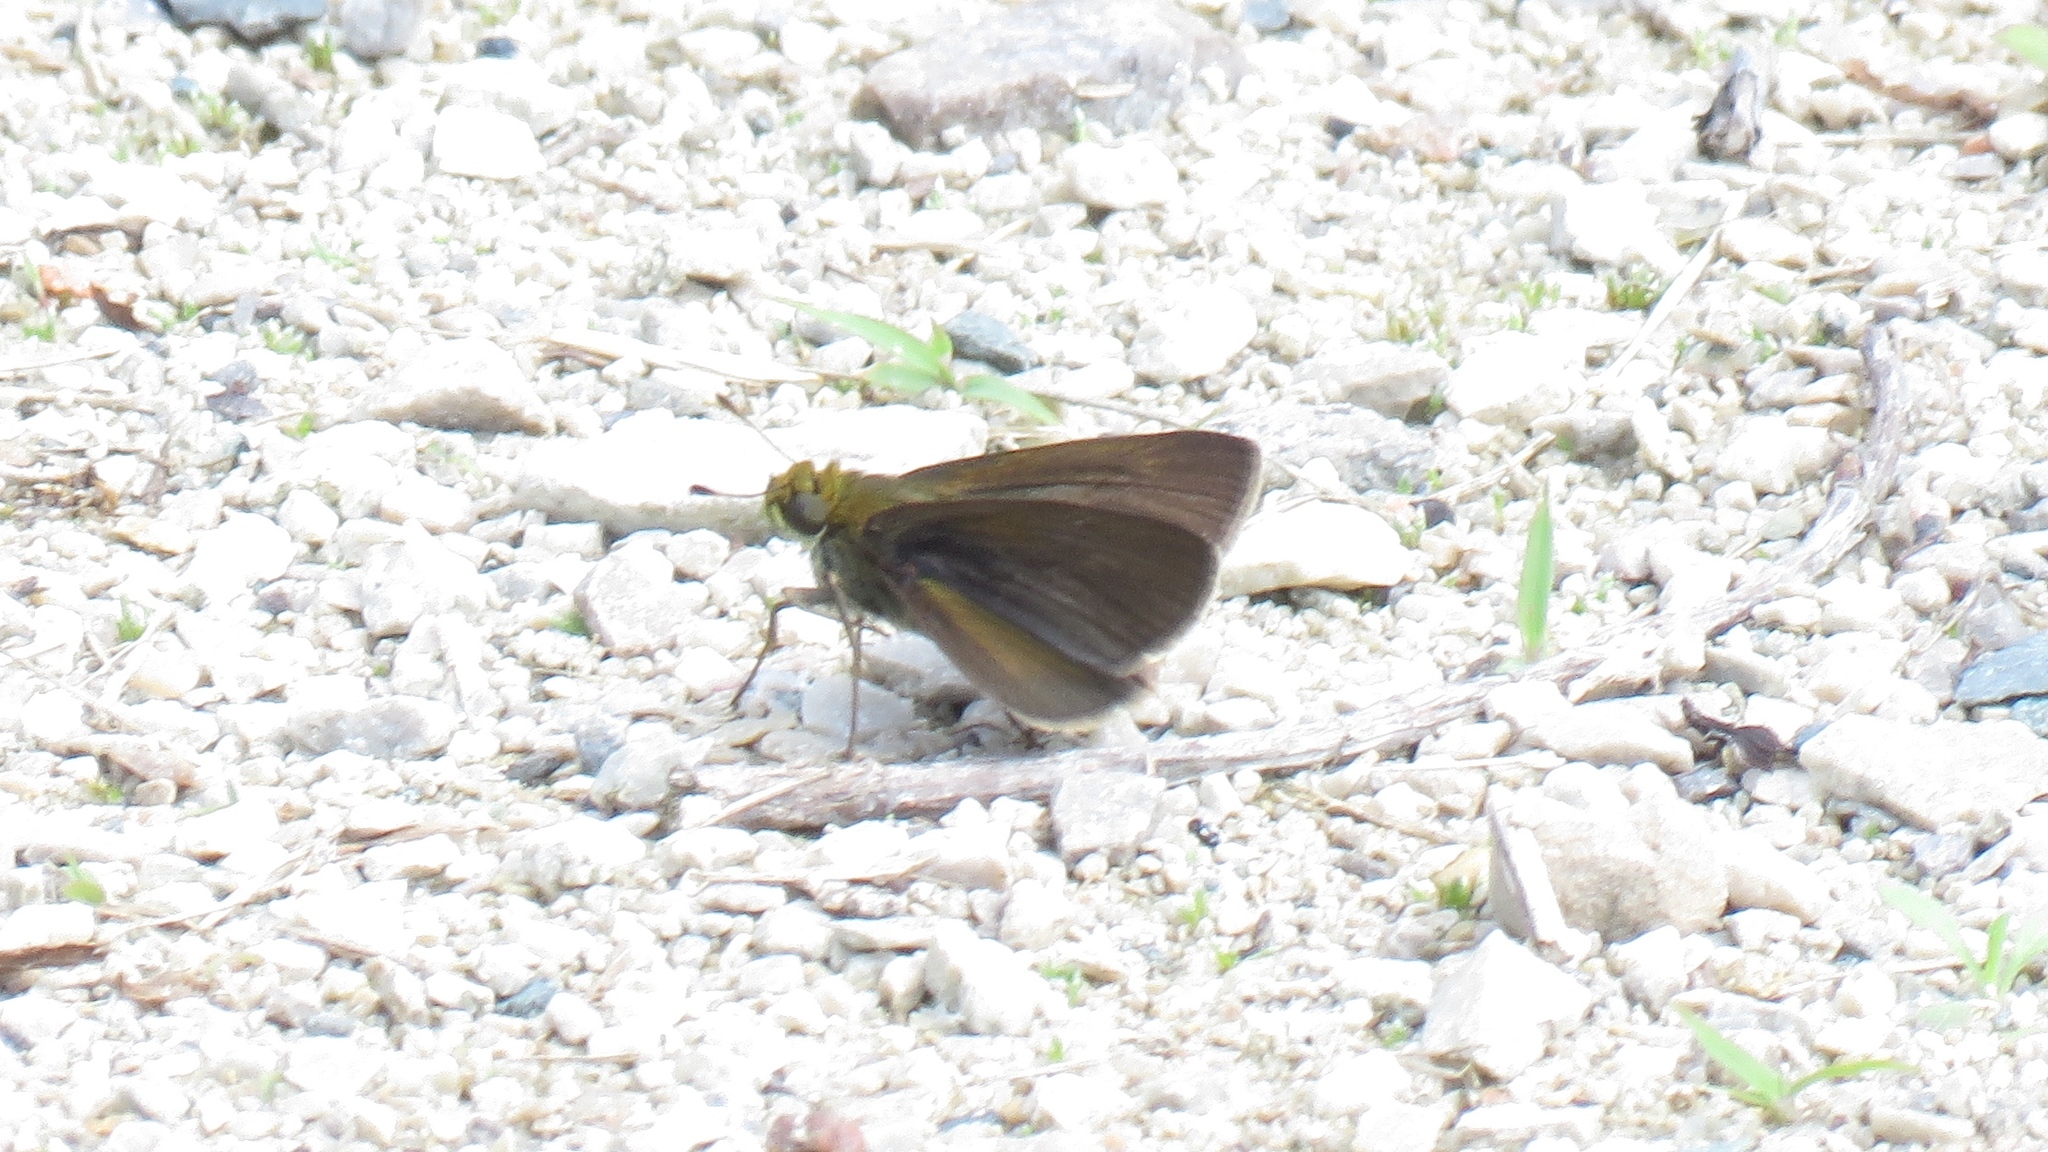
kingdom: Animalia
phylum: Arthropoda
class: Insecta
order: Lepidoptera
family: Hesperiidae
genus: Euphyes
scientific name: Euphyes vestris
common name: Dun skipper
